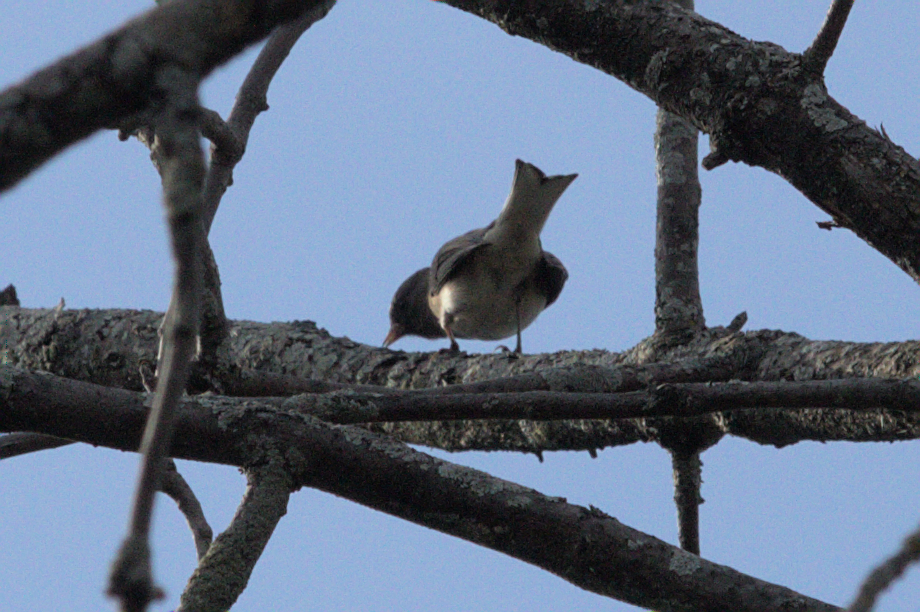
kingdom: Animalia
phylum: Chordata
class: Aves
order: Passeriformes
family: Passerellidae
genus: Junco
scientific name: Junco hyemalis
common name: Dark-eyed junco
